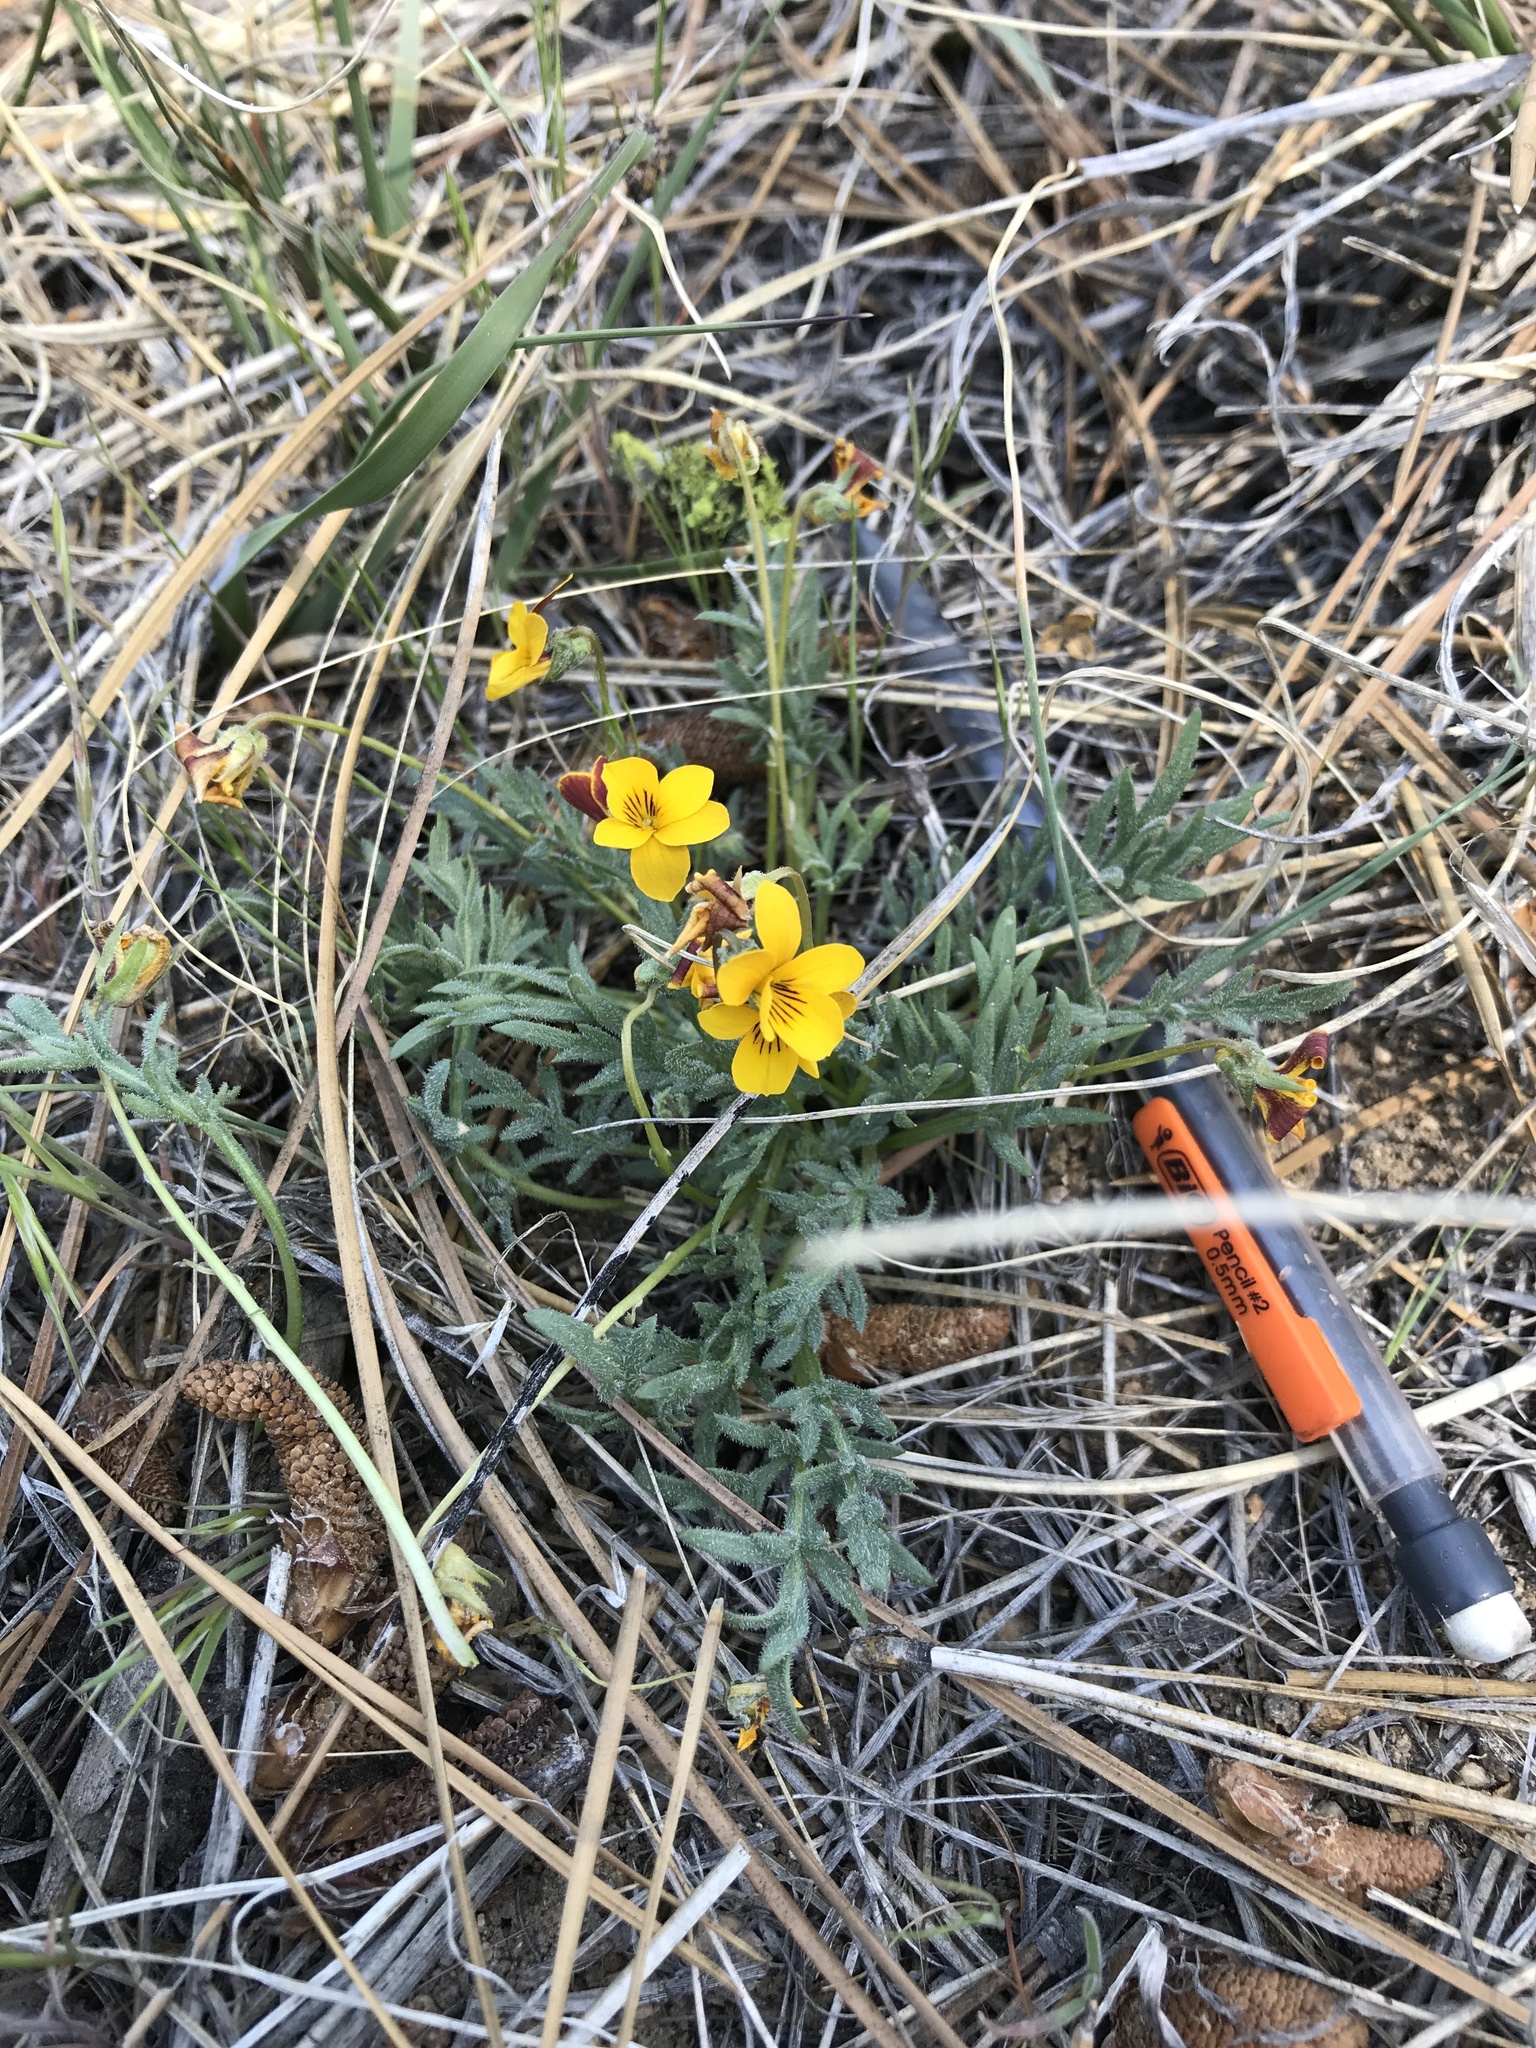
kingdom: Plantae
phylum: Tracheophyta
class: Magnoliopsida
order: Malpighiales
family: Violaceae
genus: Viola
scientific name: Viola douglasii
